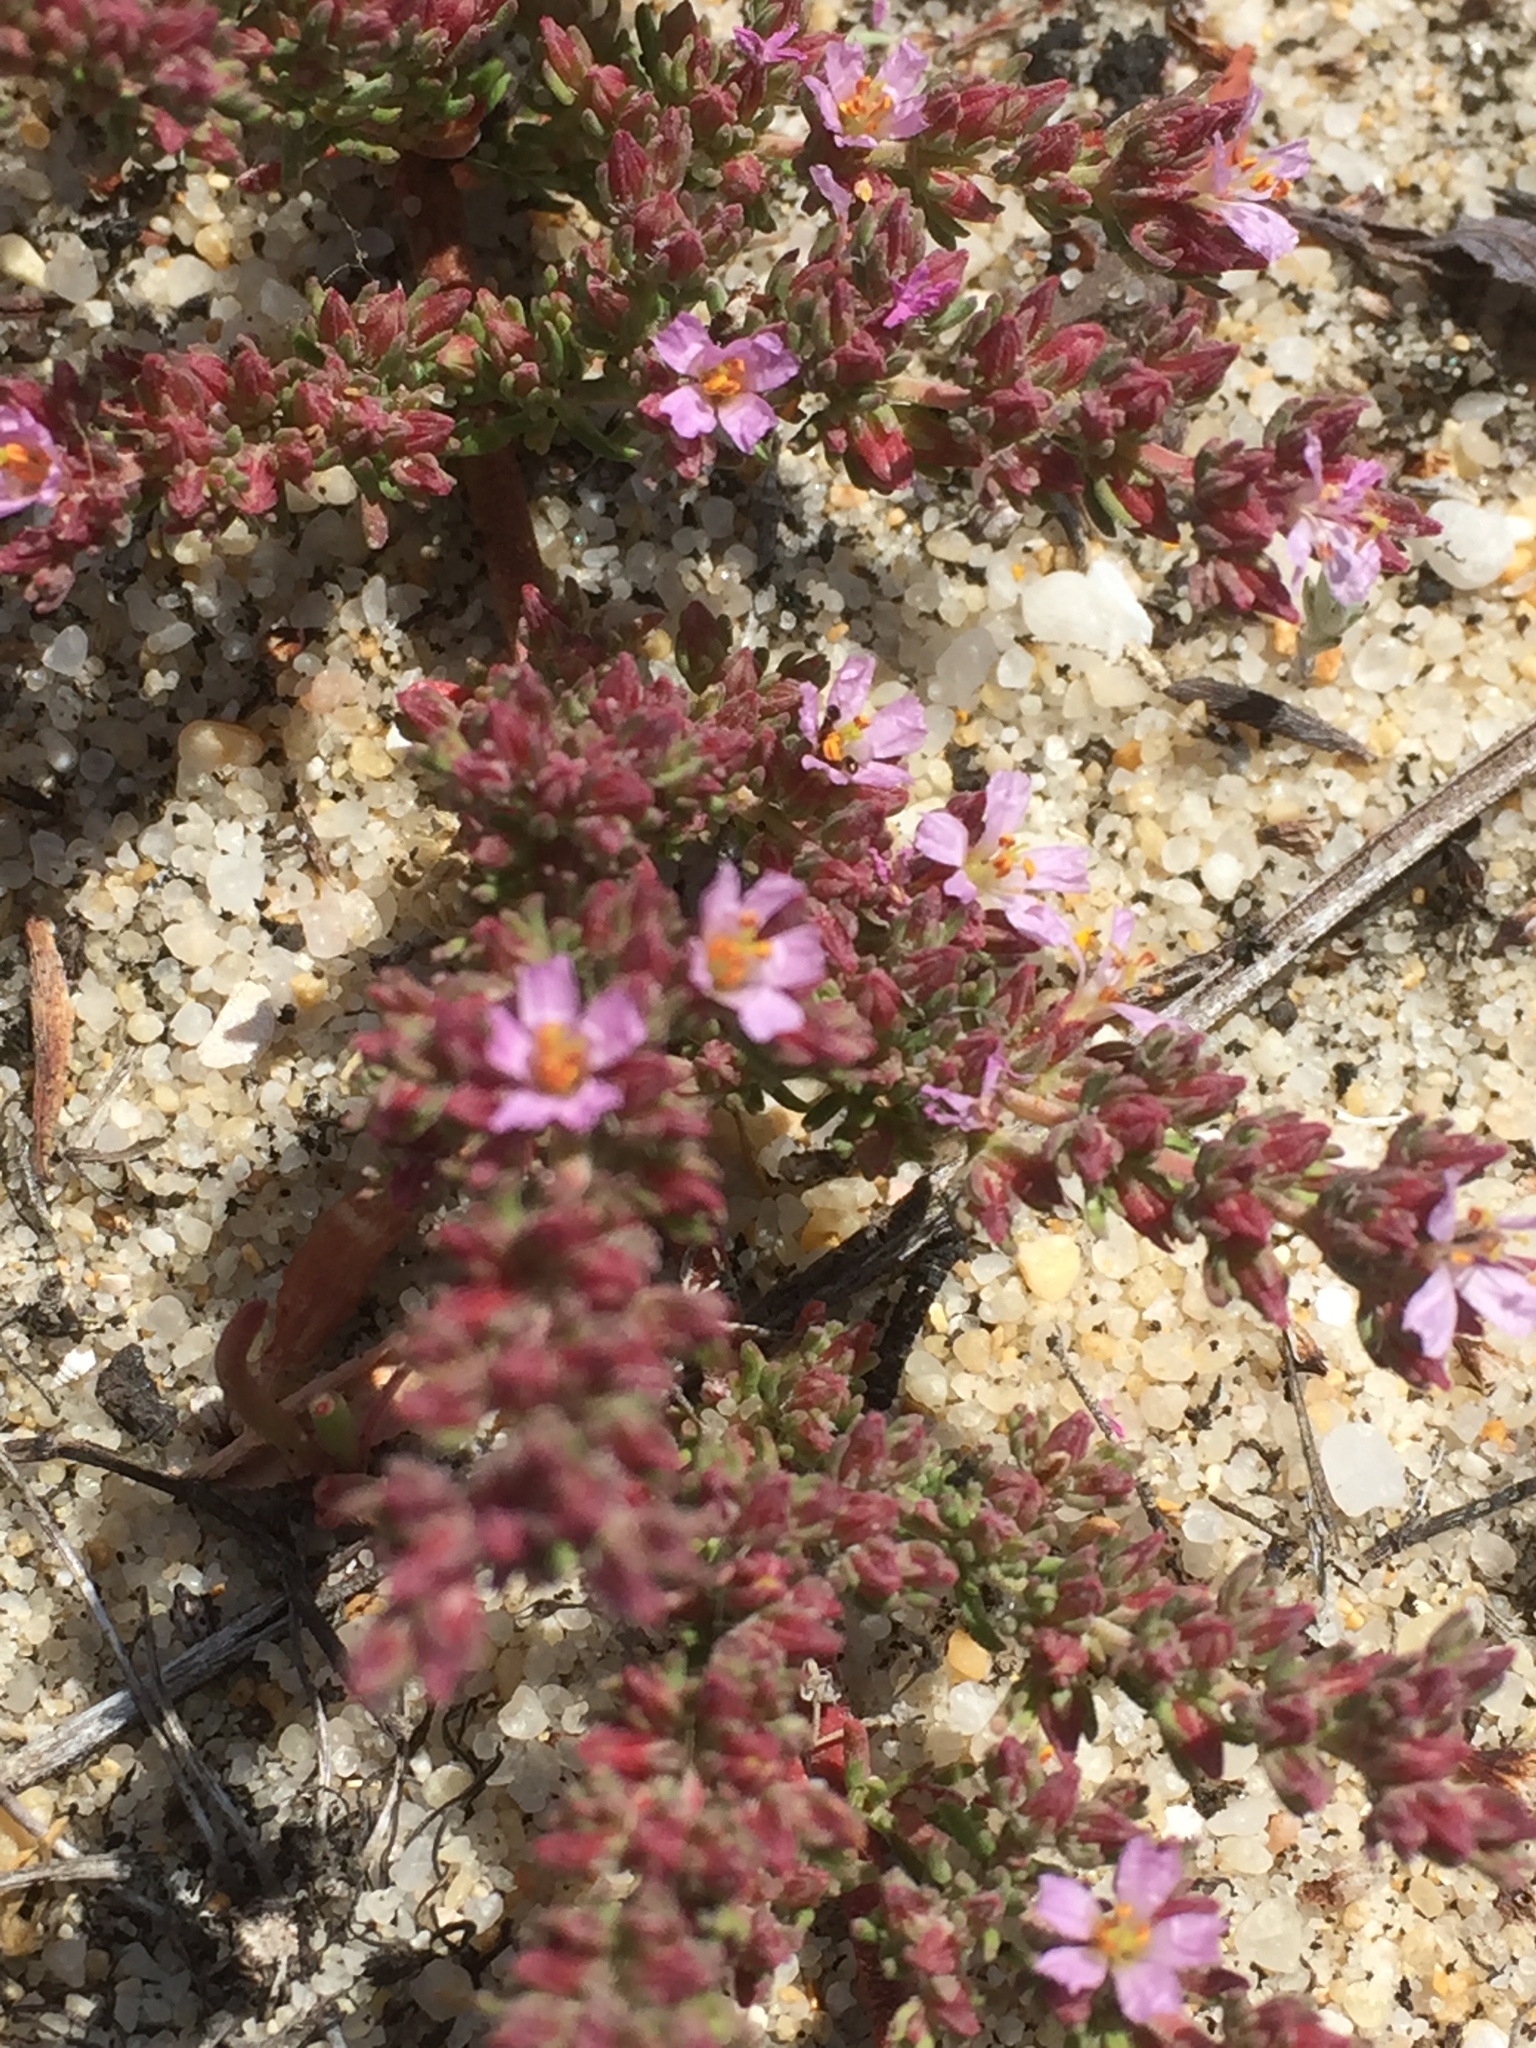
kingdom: Plantae
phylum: Tracheophyta
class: Magnoliopsida
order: Caryophyllales
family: Frankeniaceae
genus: Frankenia
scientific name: Frankenia laevis
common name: Sea-heath
